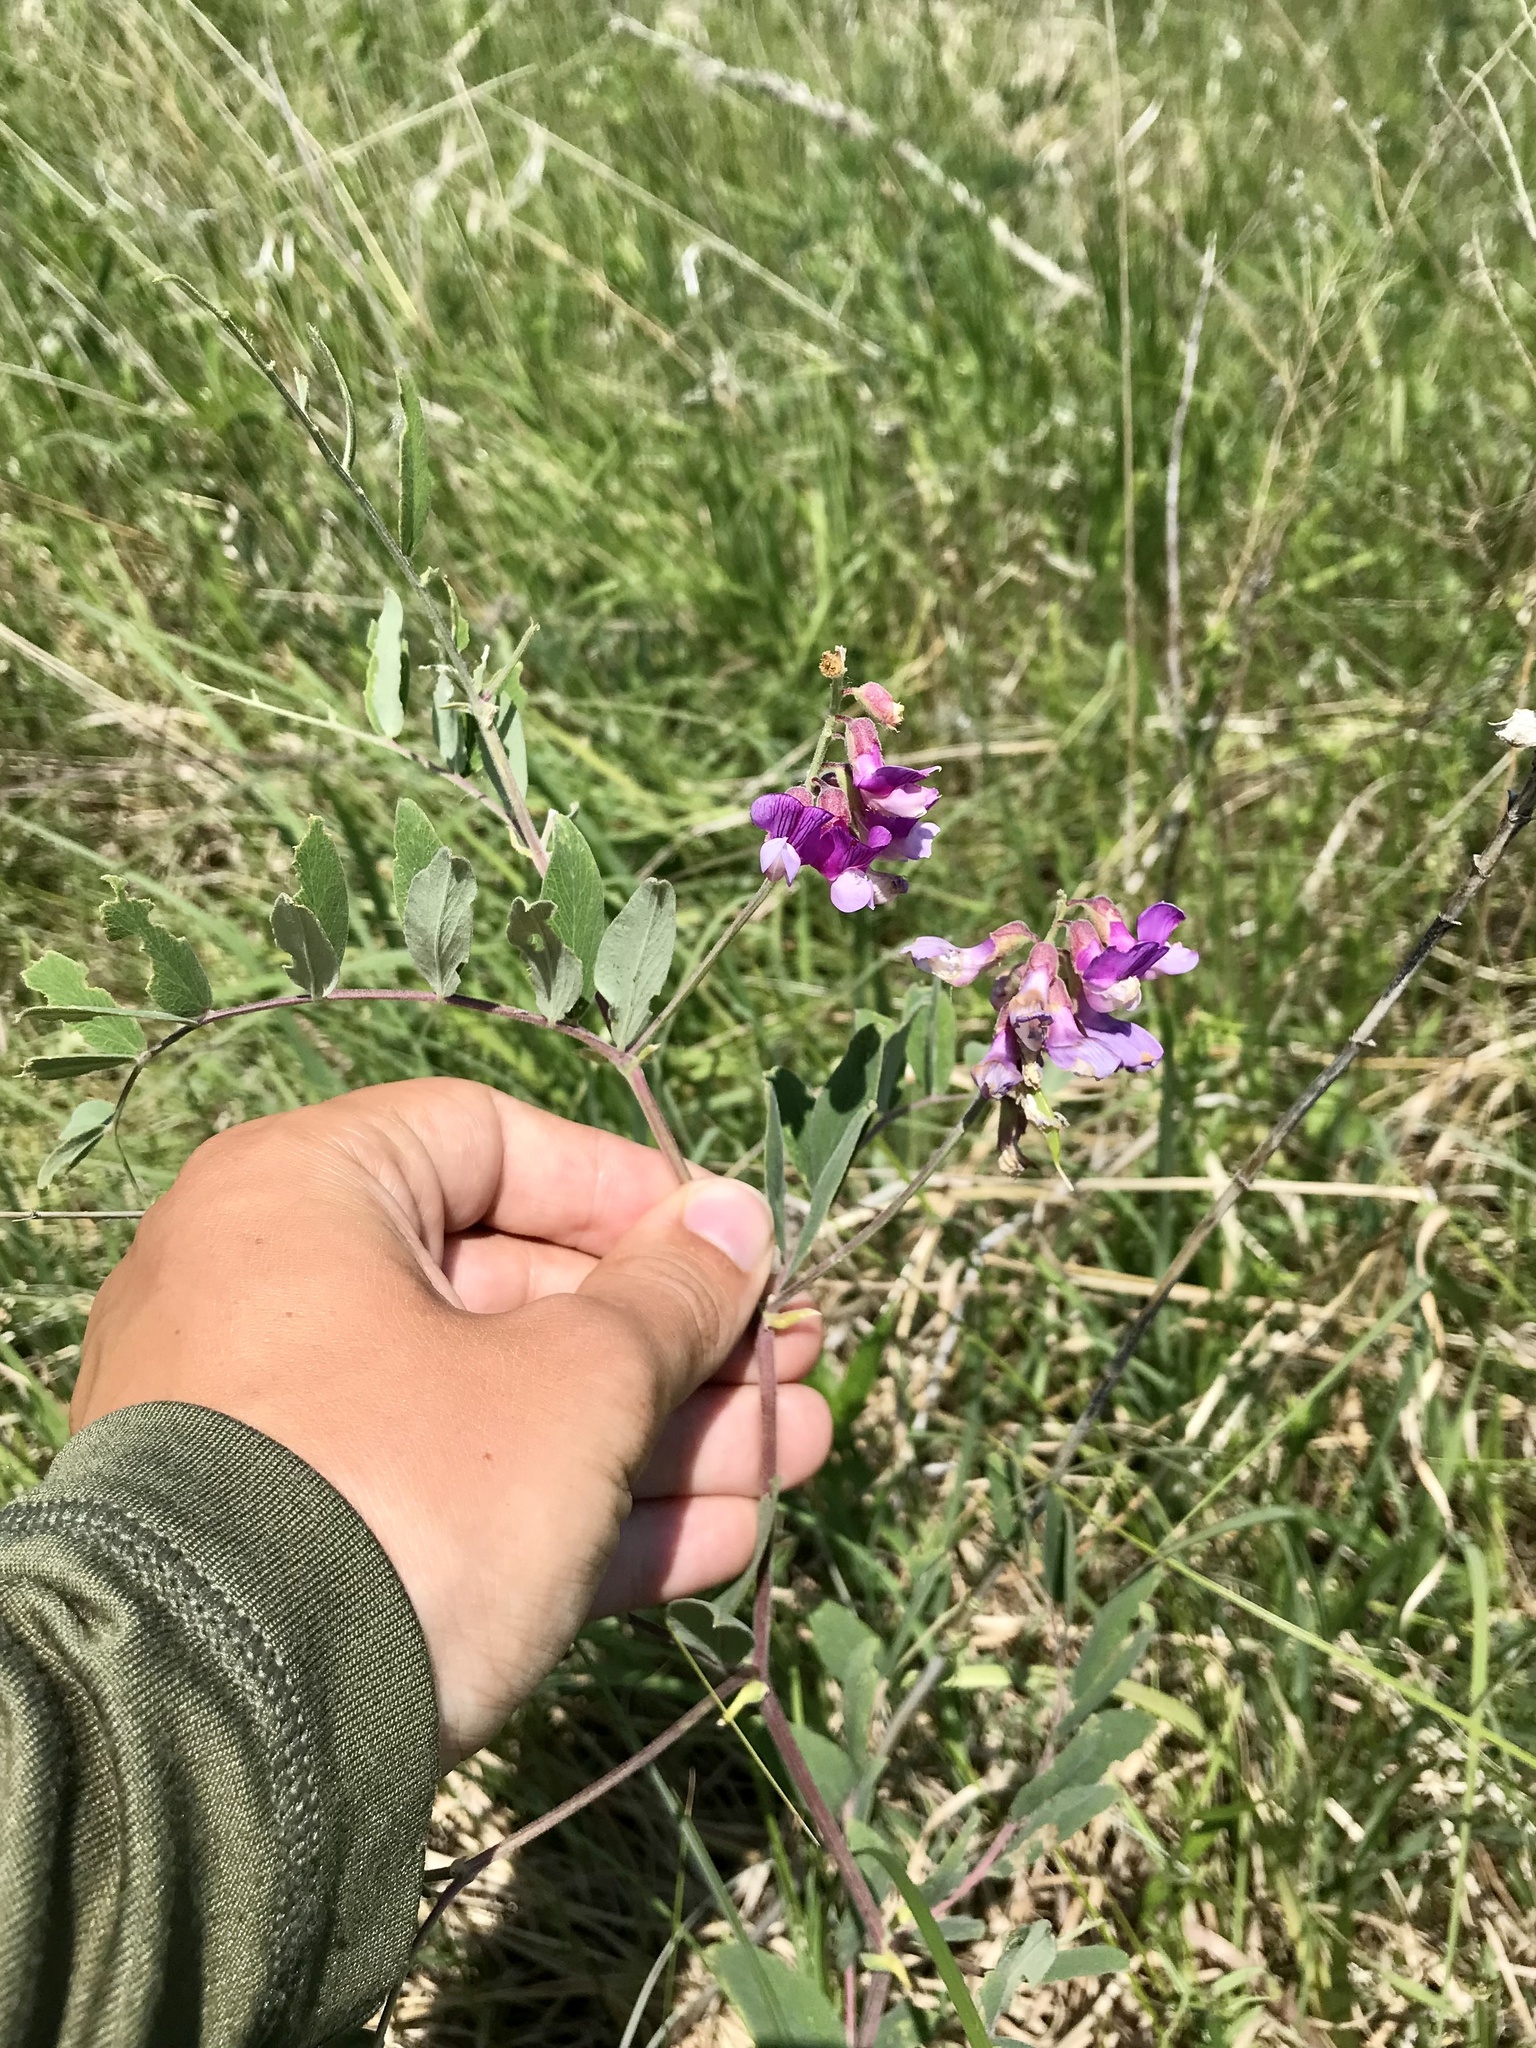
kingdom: Plantae
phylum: Tracheophyta
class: Magnoliopsida
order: Fabales
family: Fabaceae
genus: Lathyrus
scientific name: Lathyrus venosus
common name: Forest-pea
